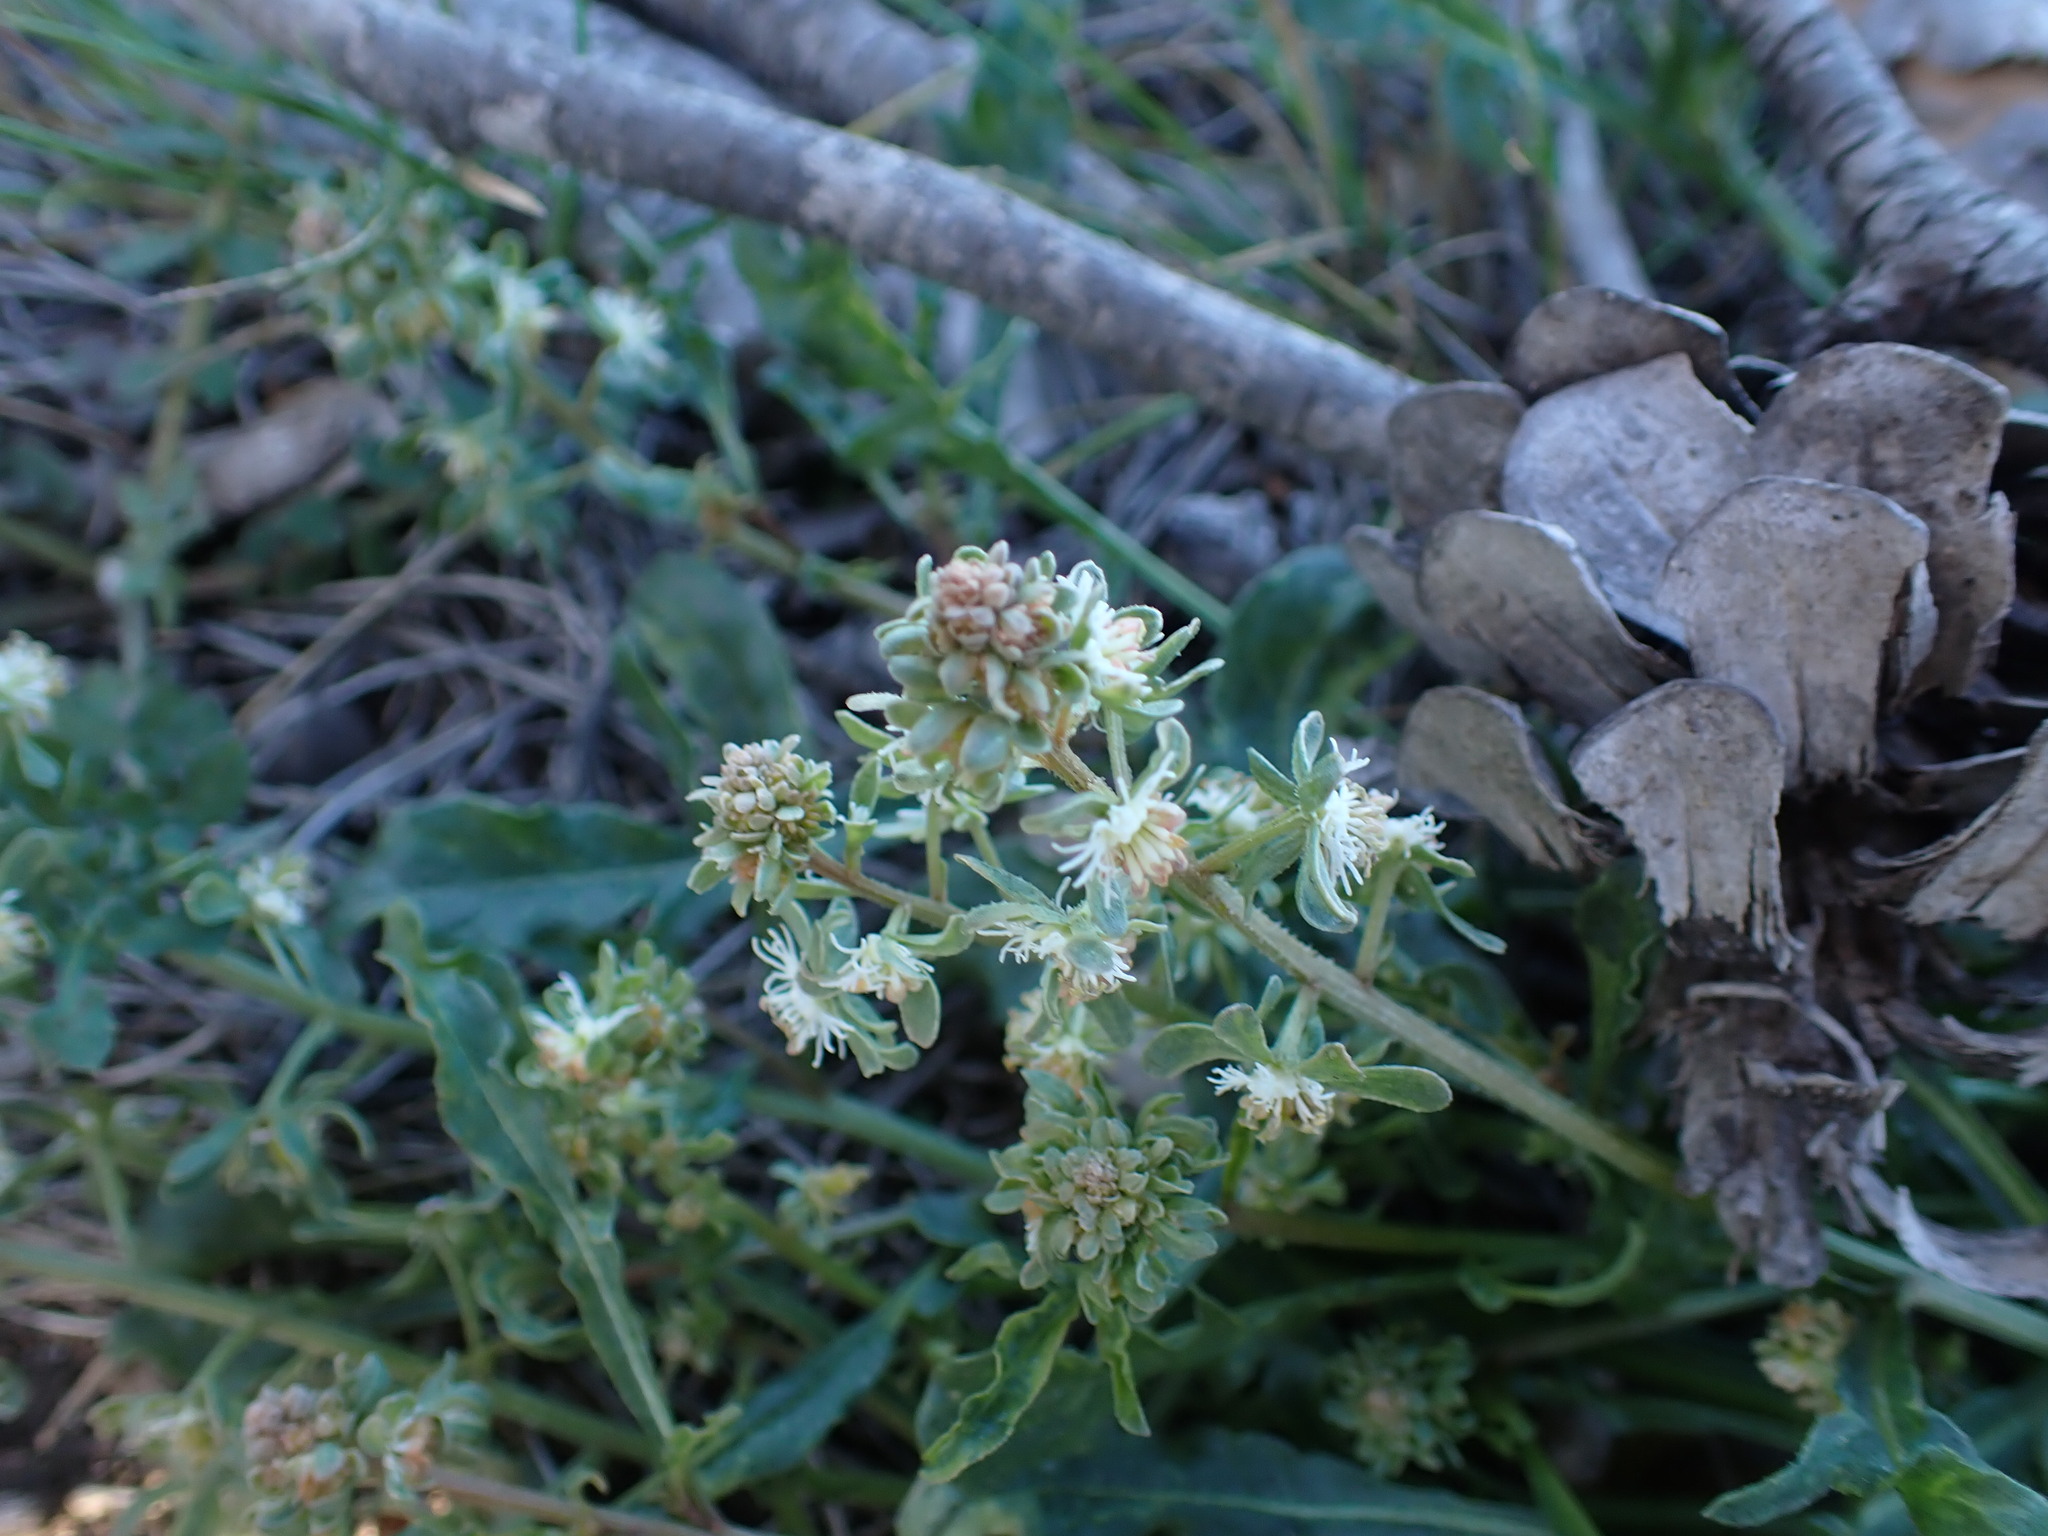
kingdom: Plantae
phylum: Tracheophyta
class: Magnoliopsida
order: Brassicales
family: Resedaceae
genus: Reseda
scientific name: Reseda phyteuma
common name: Corn mignonette
